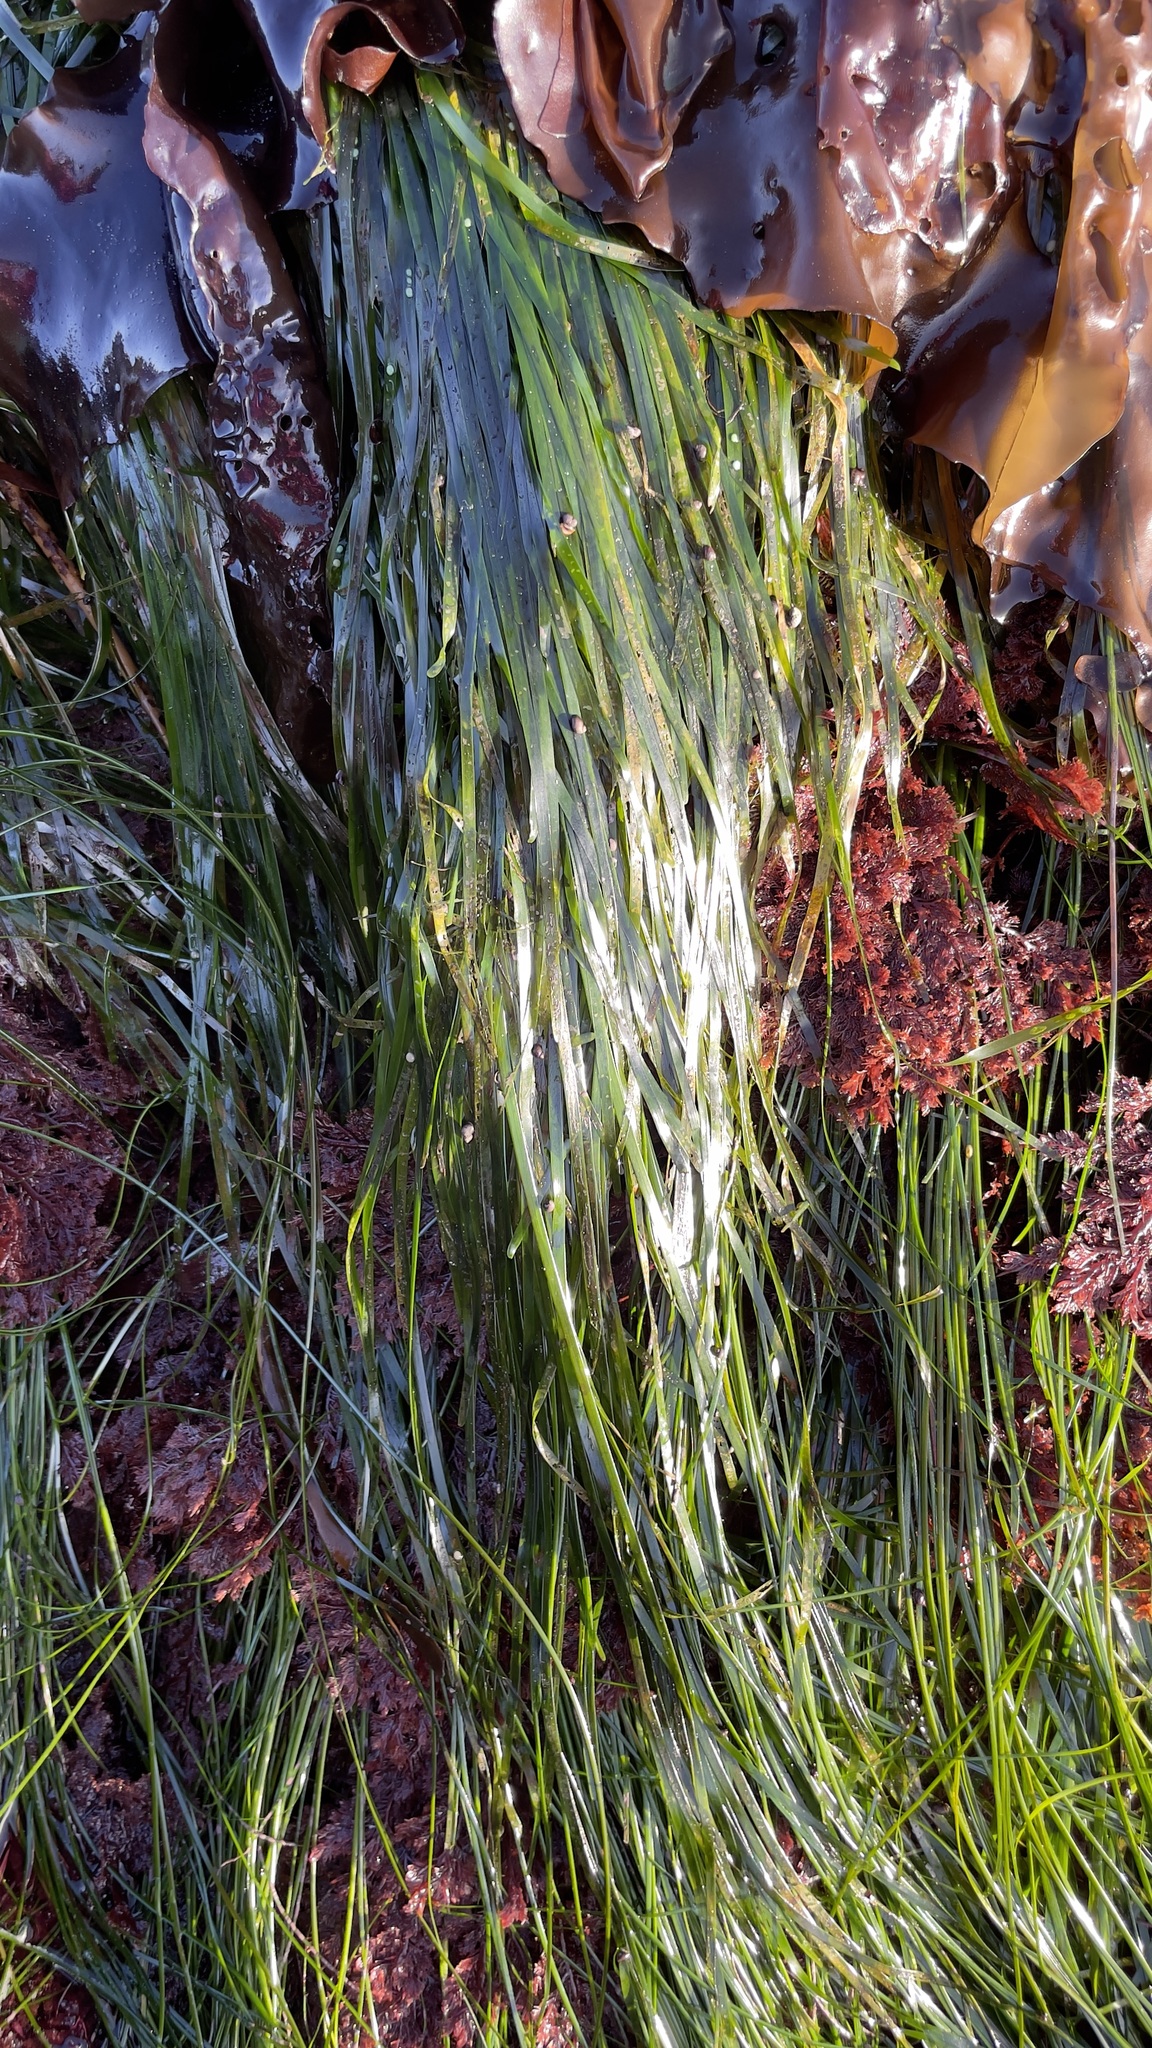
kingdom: Plantae
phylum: Tracheophyta
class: Liliopsida
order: Alismatales
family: Zosteraceae
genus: Phyllospadix
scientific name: Phyllospadix scouleri
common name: Species code: ps
